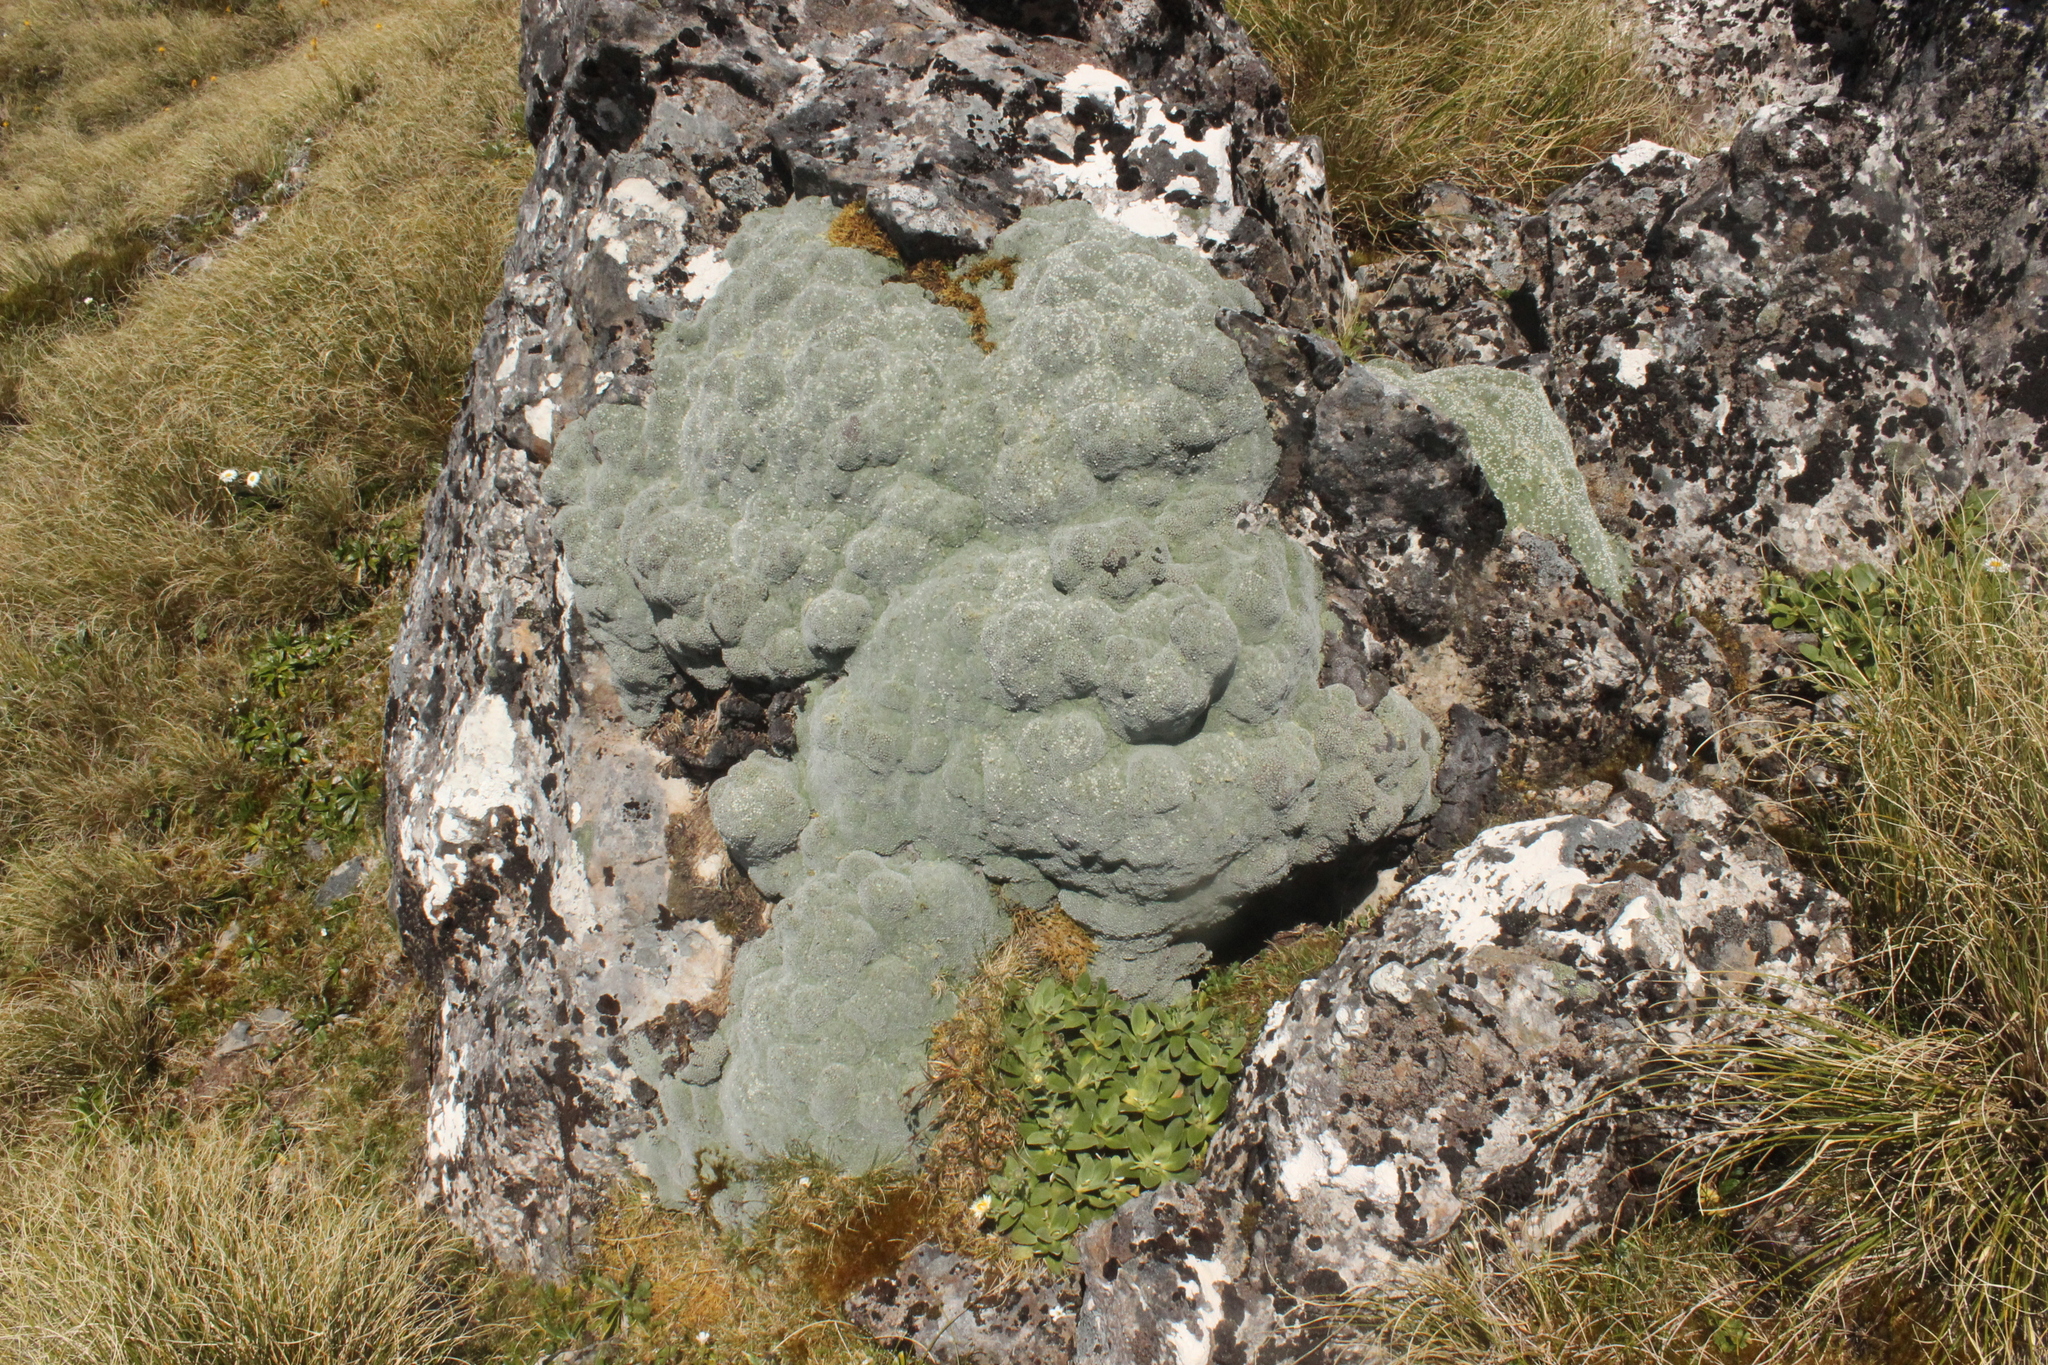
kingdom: Plantae
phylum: Tracheophyta
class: Magnoliopsida
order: Asterales
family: Asteraceae
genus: Raoulia
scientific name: Raoulia rubra
